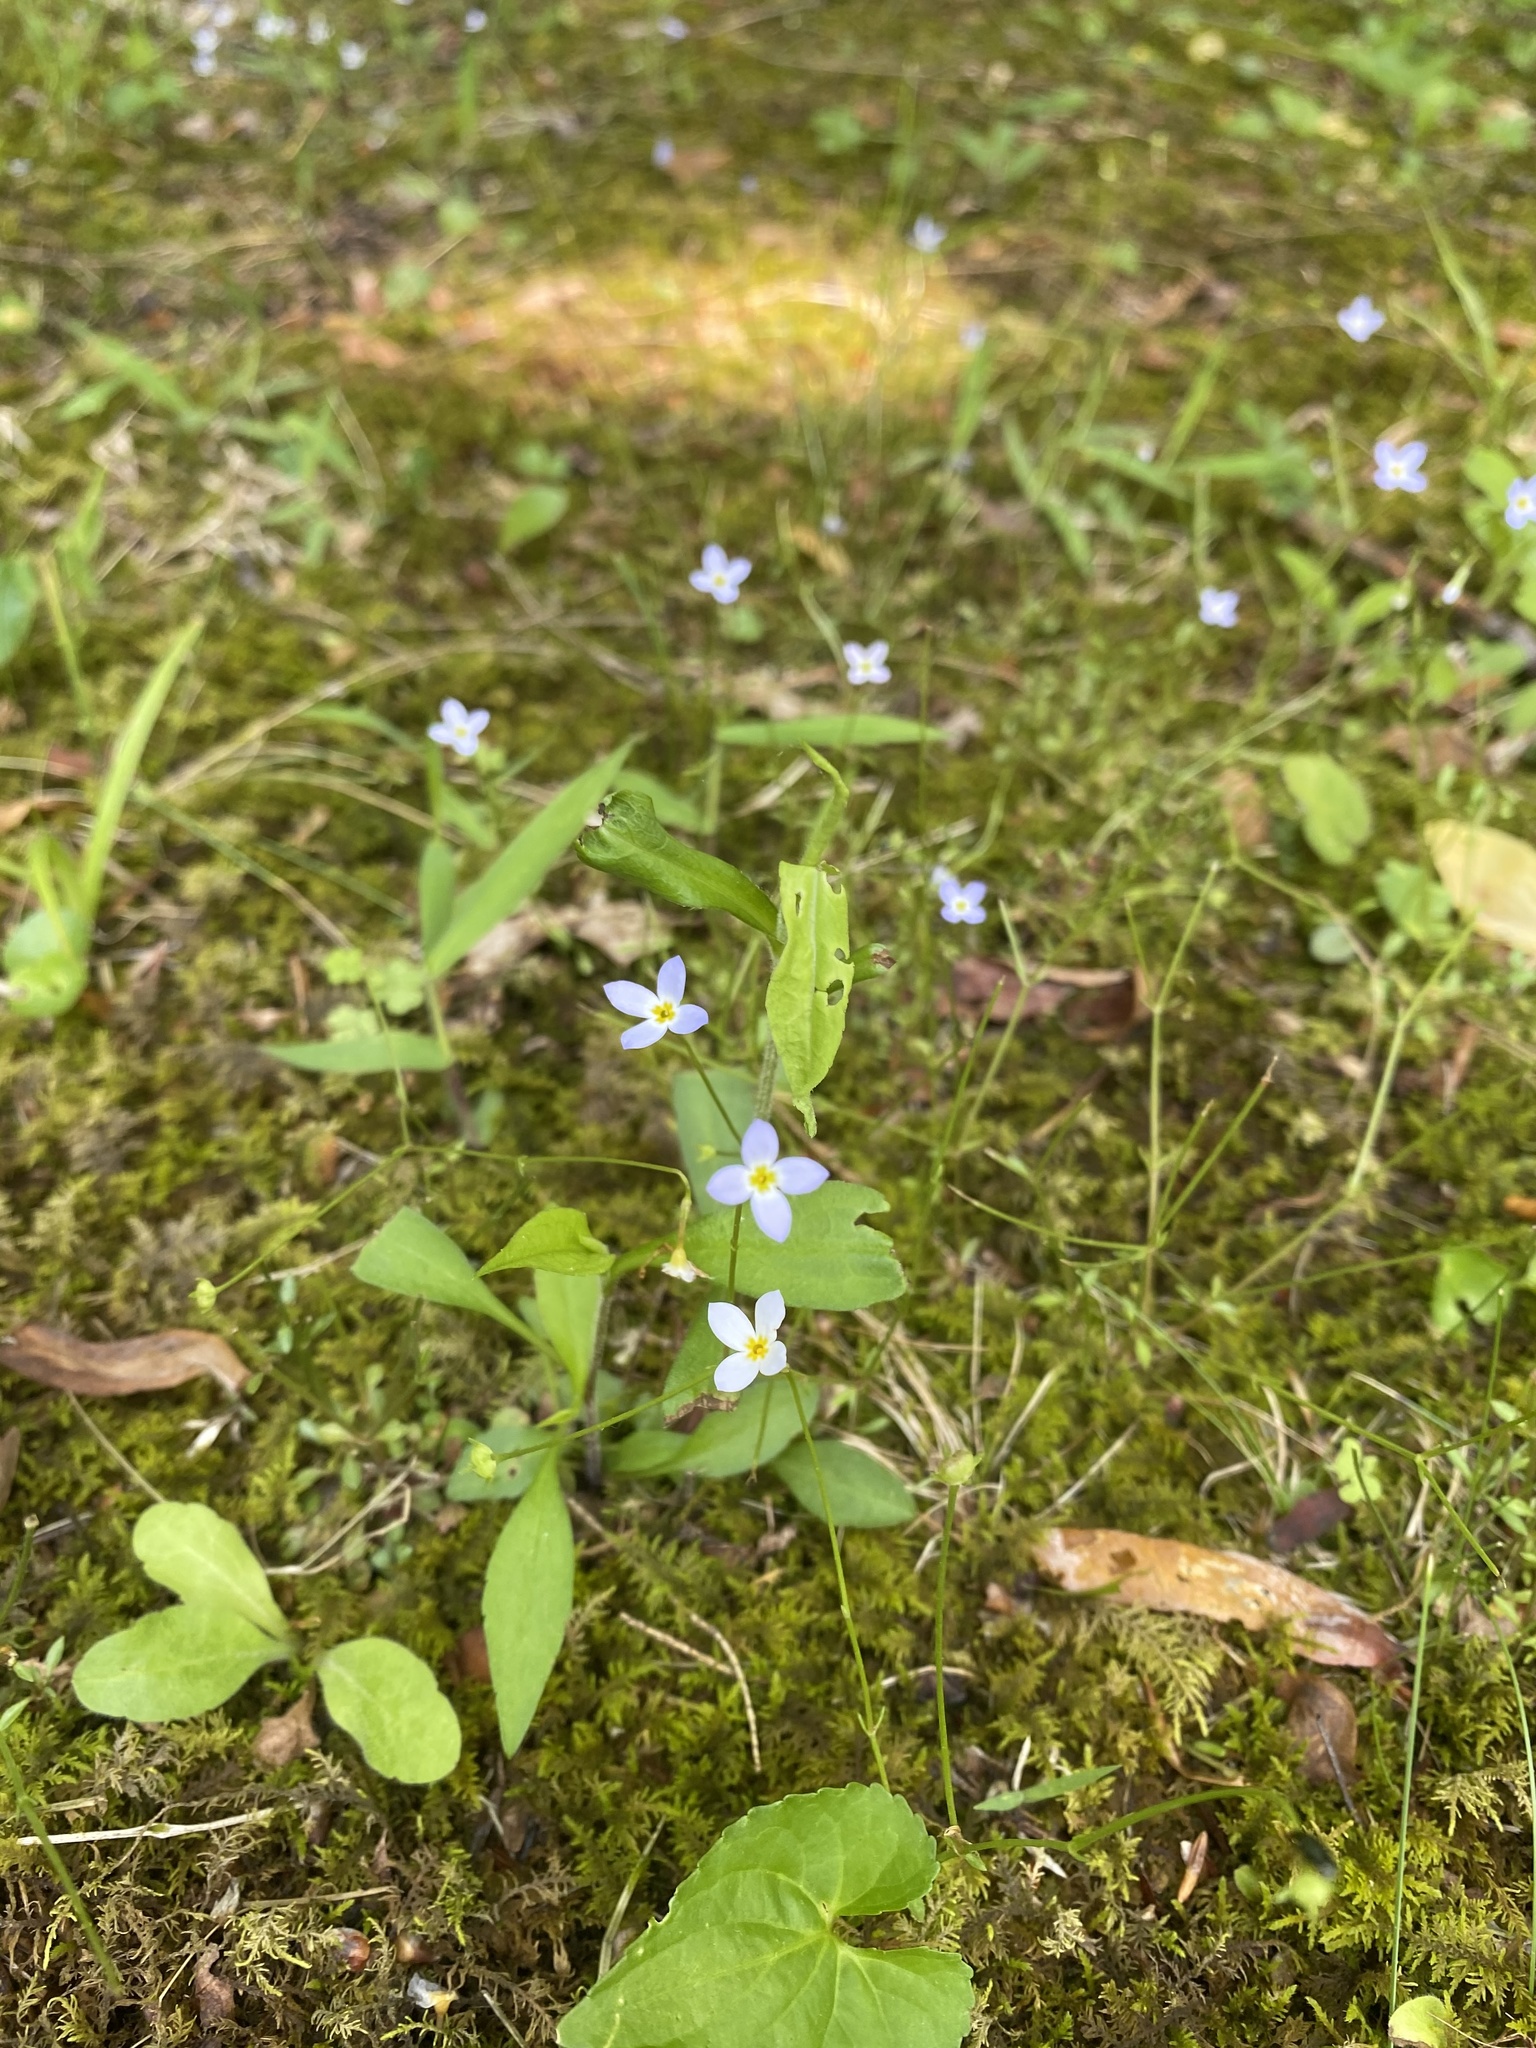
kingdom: Plantae
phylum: Tracheophyta
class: Magnoliopsida
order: Gentianales
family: Rubiaceae
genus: Houstonia
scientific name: Houstonia caerulea
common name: Bluets
